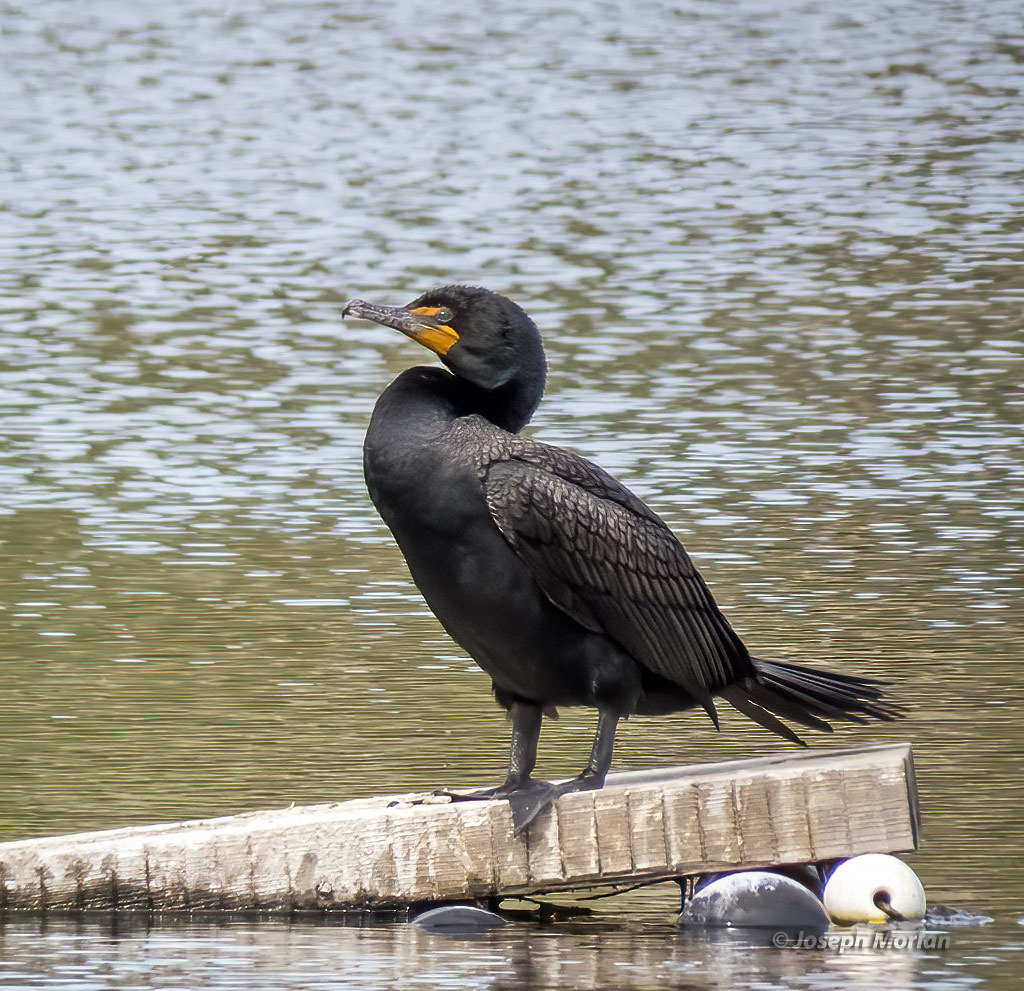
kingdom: Animalia
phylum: Chordata
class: Aves
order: Suliformes
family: Phalacrocoracidae
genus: Phalacrocorax
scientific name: Phalacrocorax auritus
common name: Double-crested cormorant
